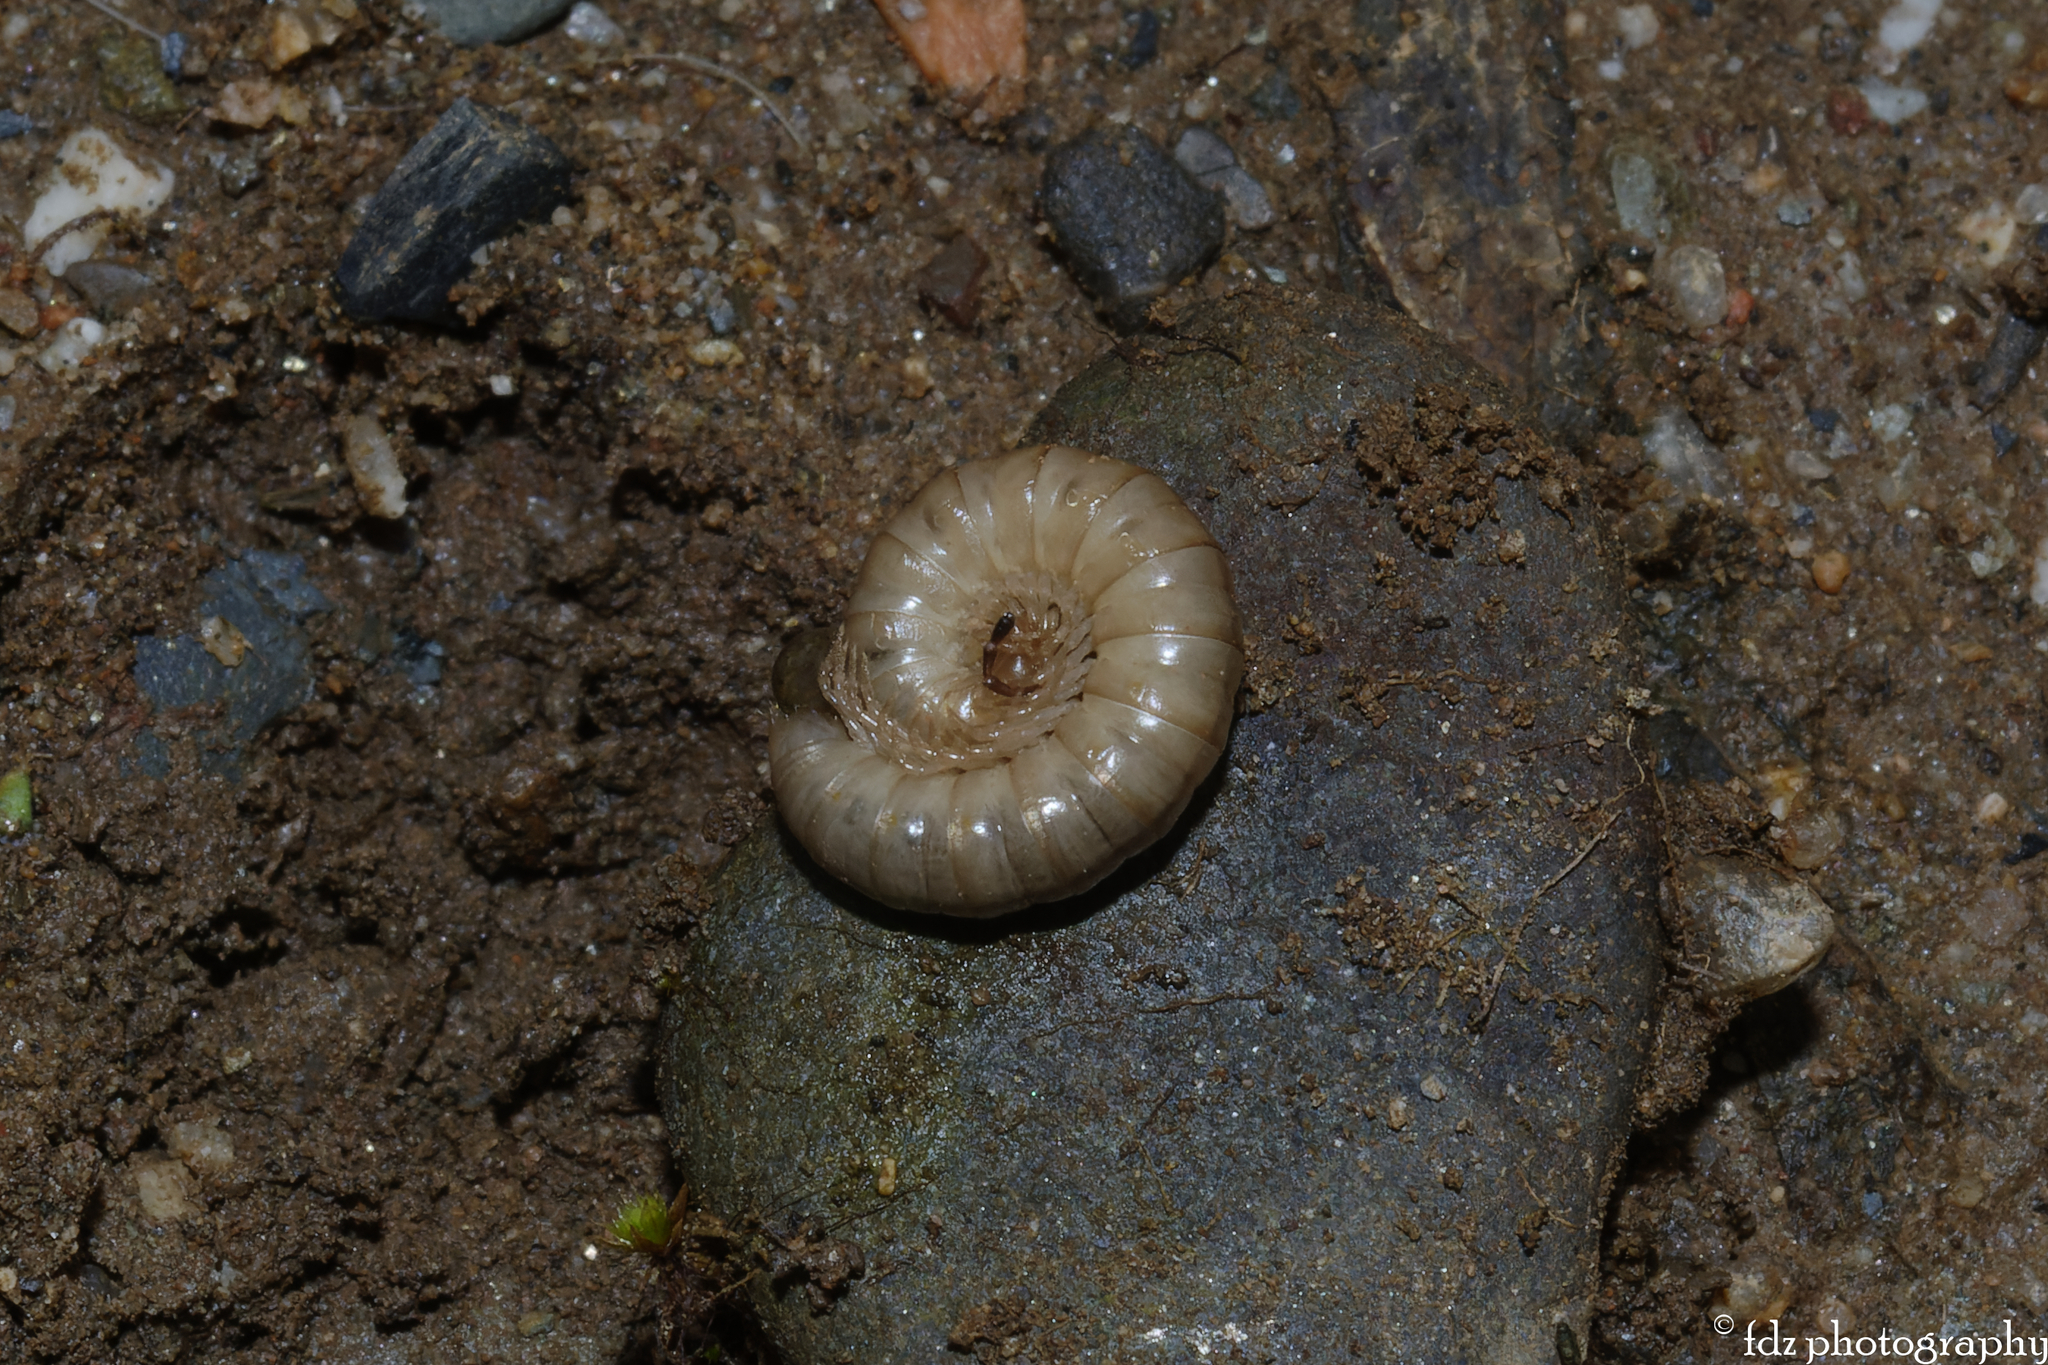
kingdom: Animalia
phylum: Arthropoda
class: Diplopoda
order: Polydesmida
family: Paradoxosomatidae
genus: Oranmorpha
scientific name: Oranmorpha guerinii
